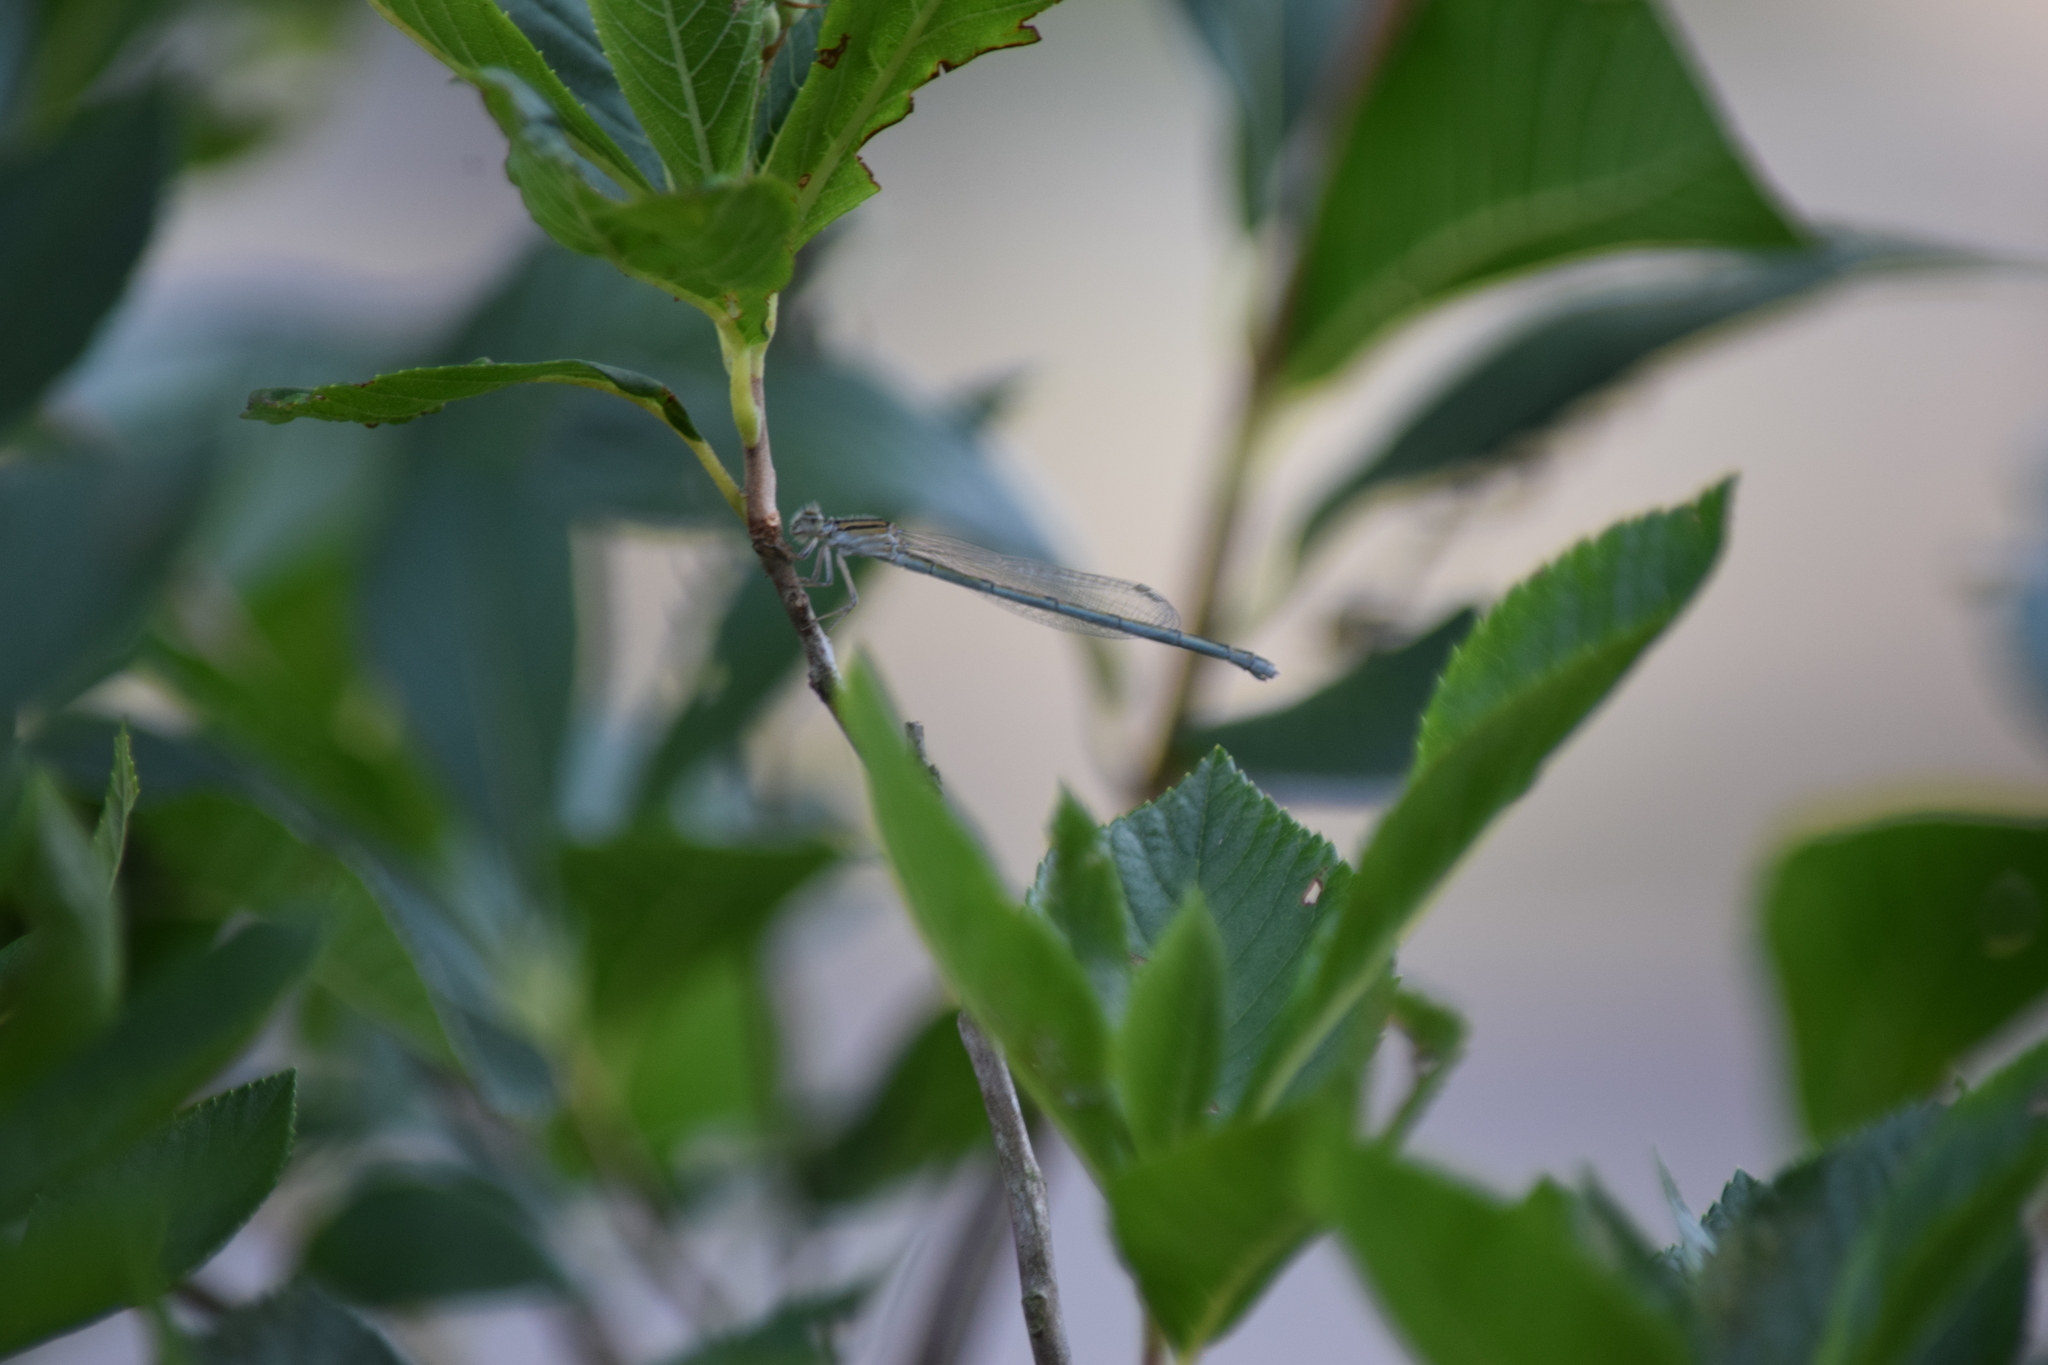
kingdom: Animalia
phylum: Arthropoda
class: Insecta
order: Odonata
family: Coenagrionidae
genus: Enallagma
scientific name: Enallagma
